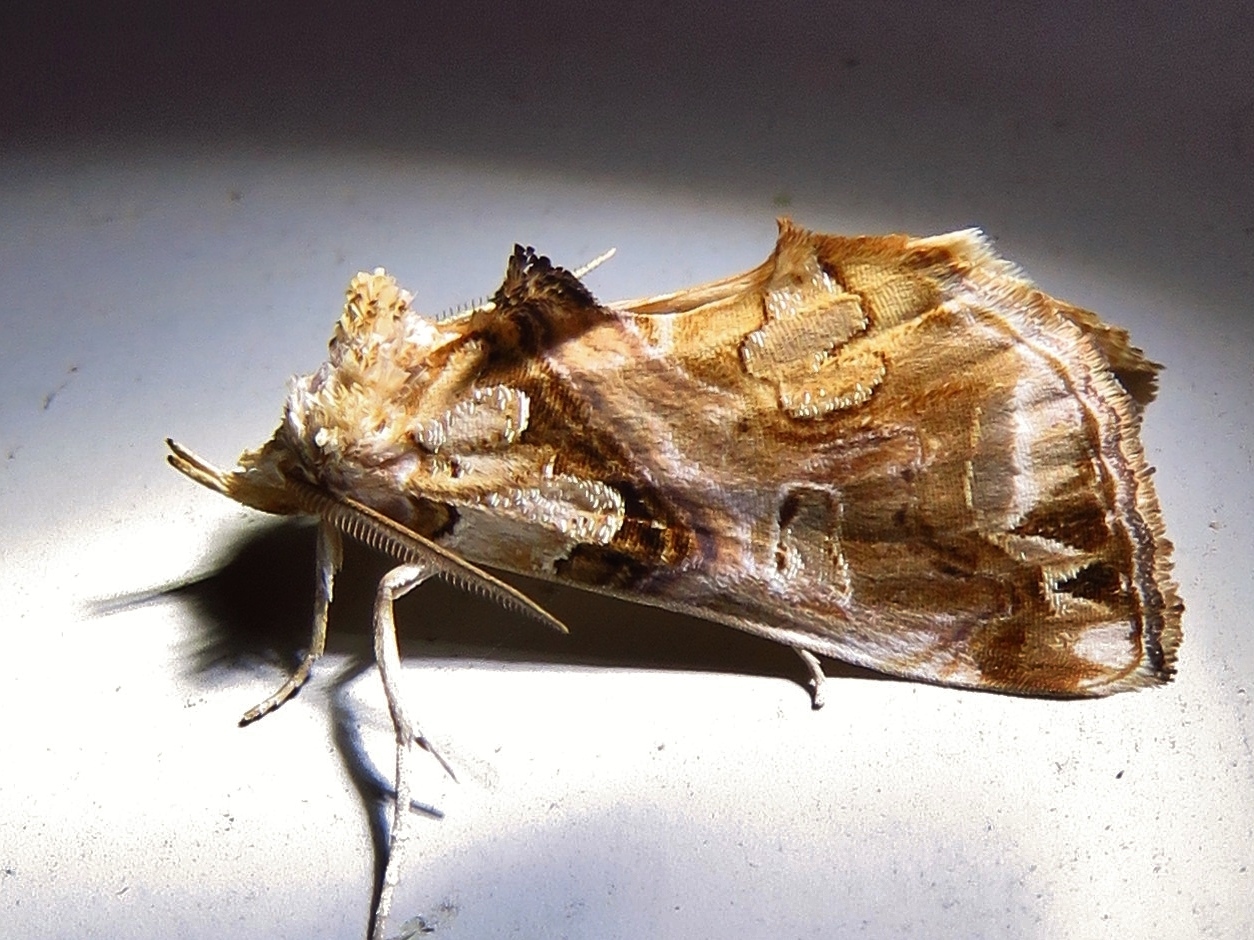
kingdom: Animalia
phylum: Arthropoda
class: Insecta
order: Lepidoptera
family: Erebidae
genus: Plusiodonta
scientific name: Plusiodonta compressipalpis
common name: Moonseed moth
